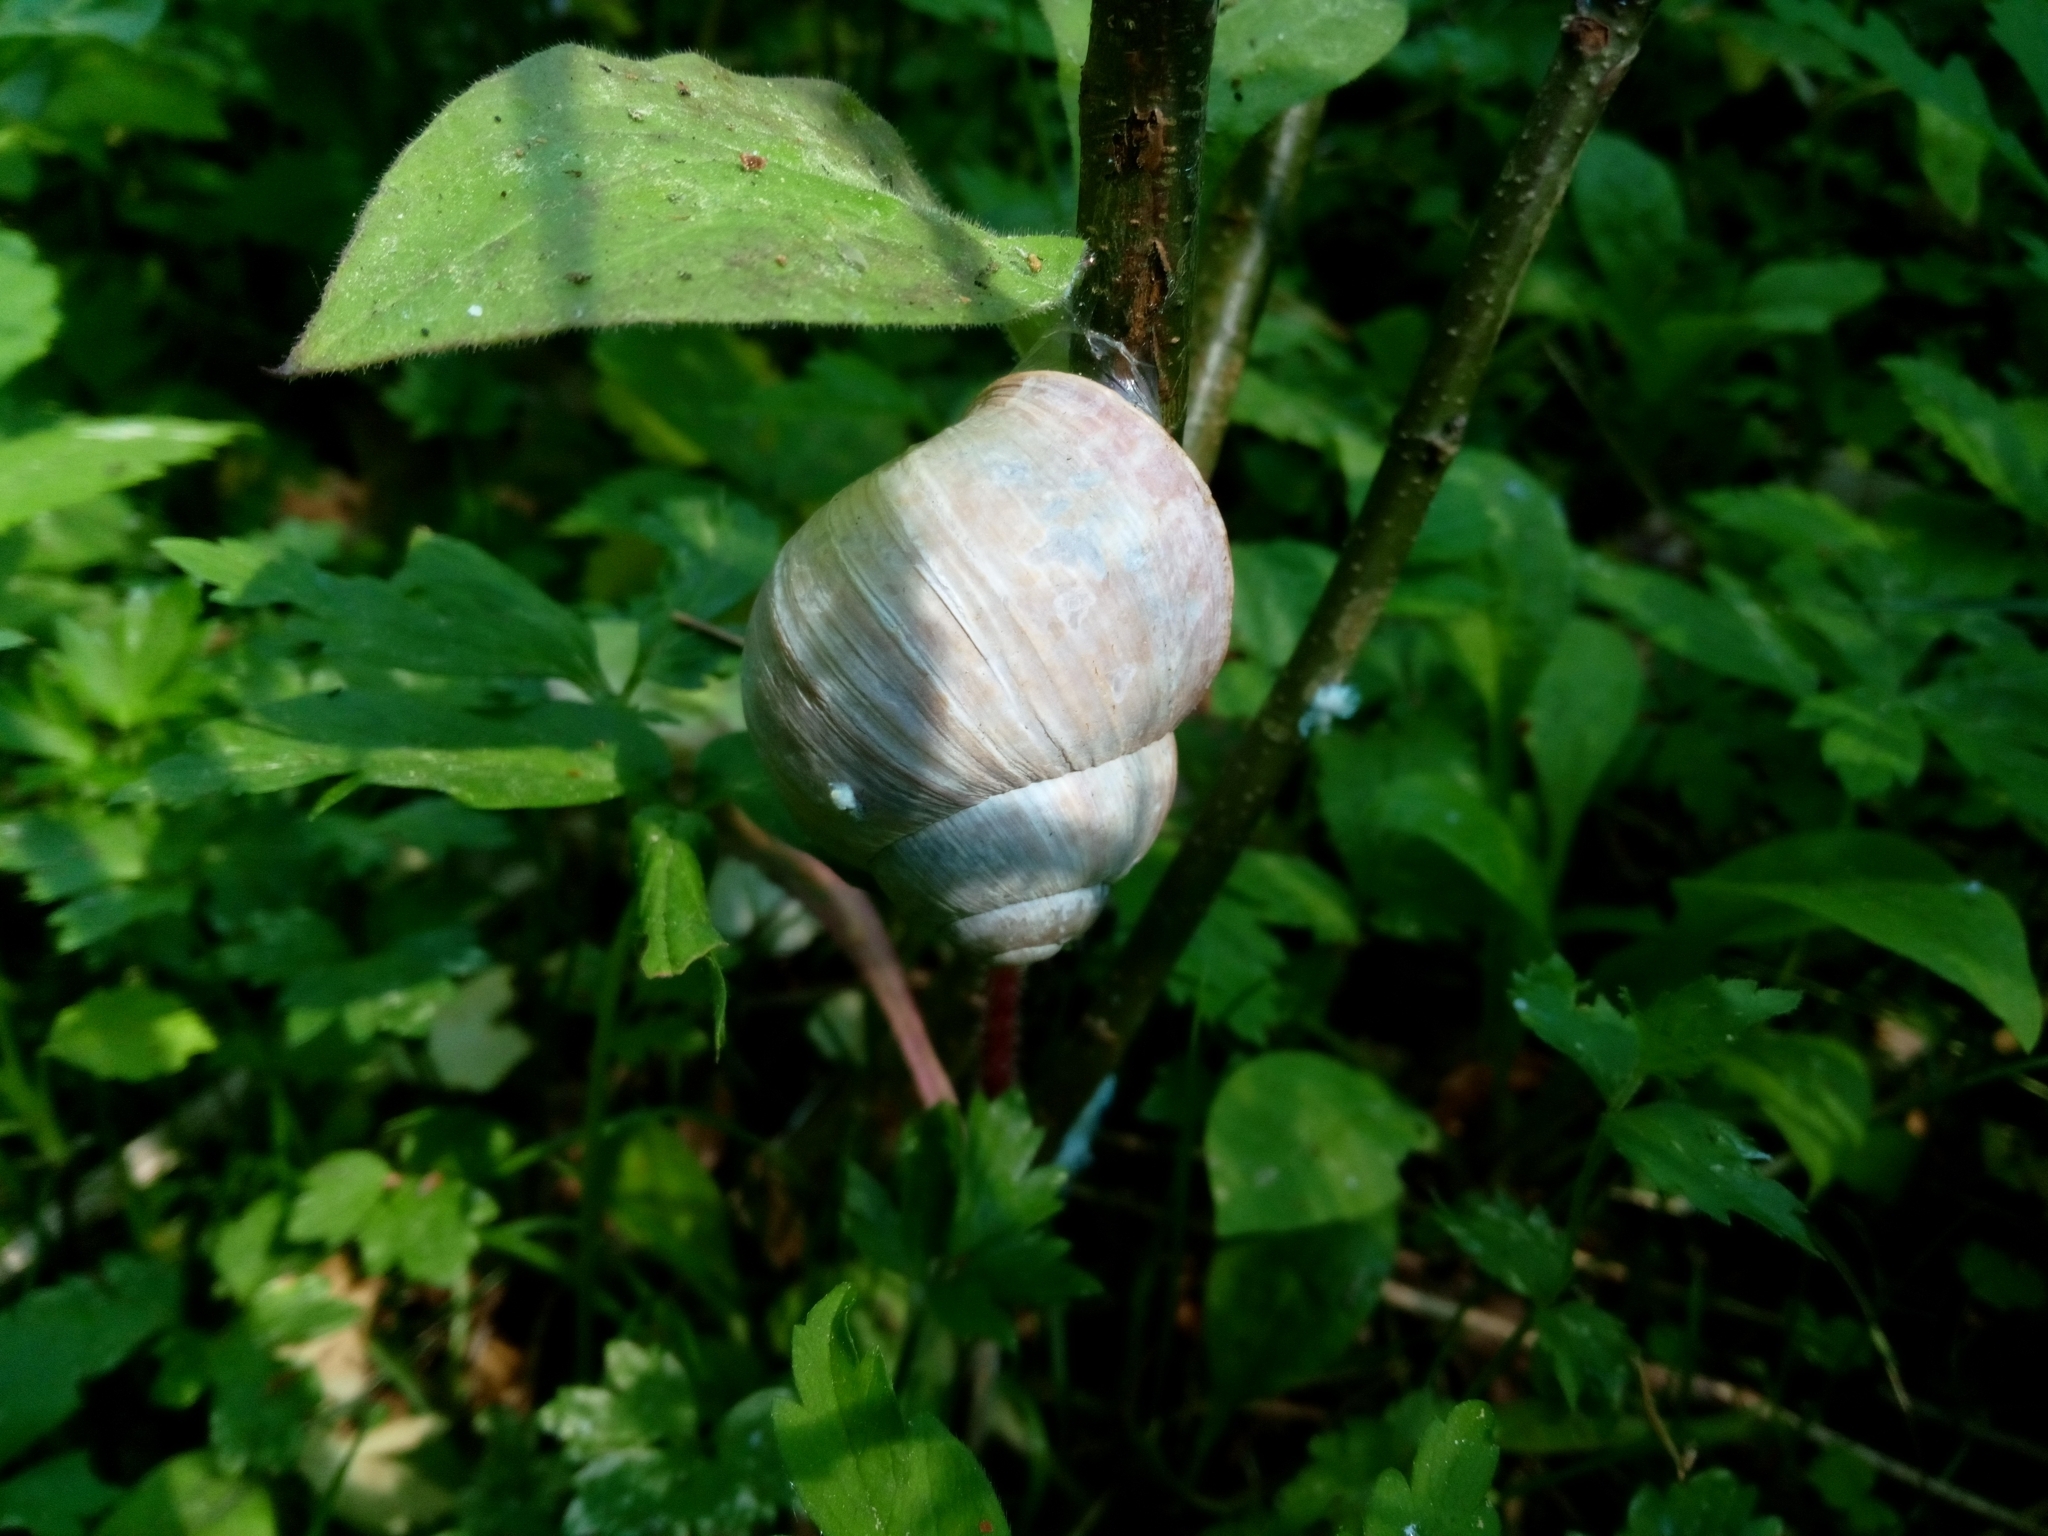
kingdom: Animalia
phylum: Mollusca
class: Gastropoda
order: Stylommatophora
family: Helicidae
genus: Helix
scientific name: Helix pomatia
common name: Roman snail
